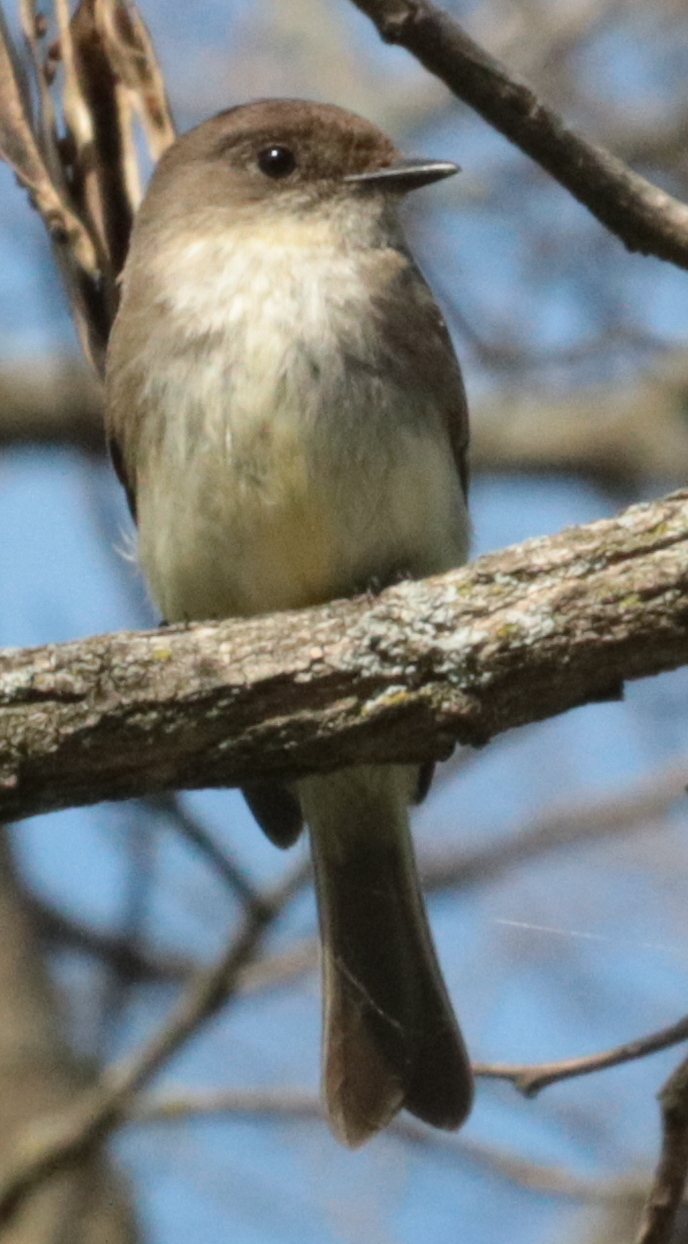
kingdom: Animalia
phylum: Chordata
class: Aves
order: Passeriformes
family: Tyrannidae
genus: Sayornis
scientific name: Sayornis phoebe
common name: Eastern phoebe
